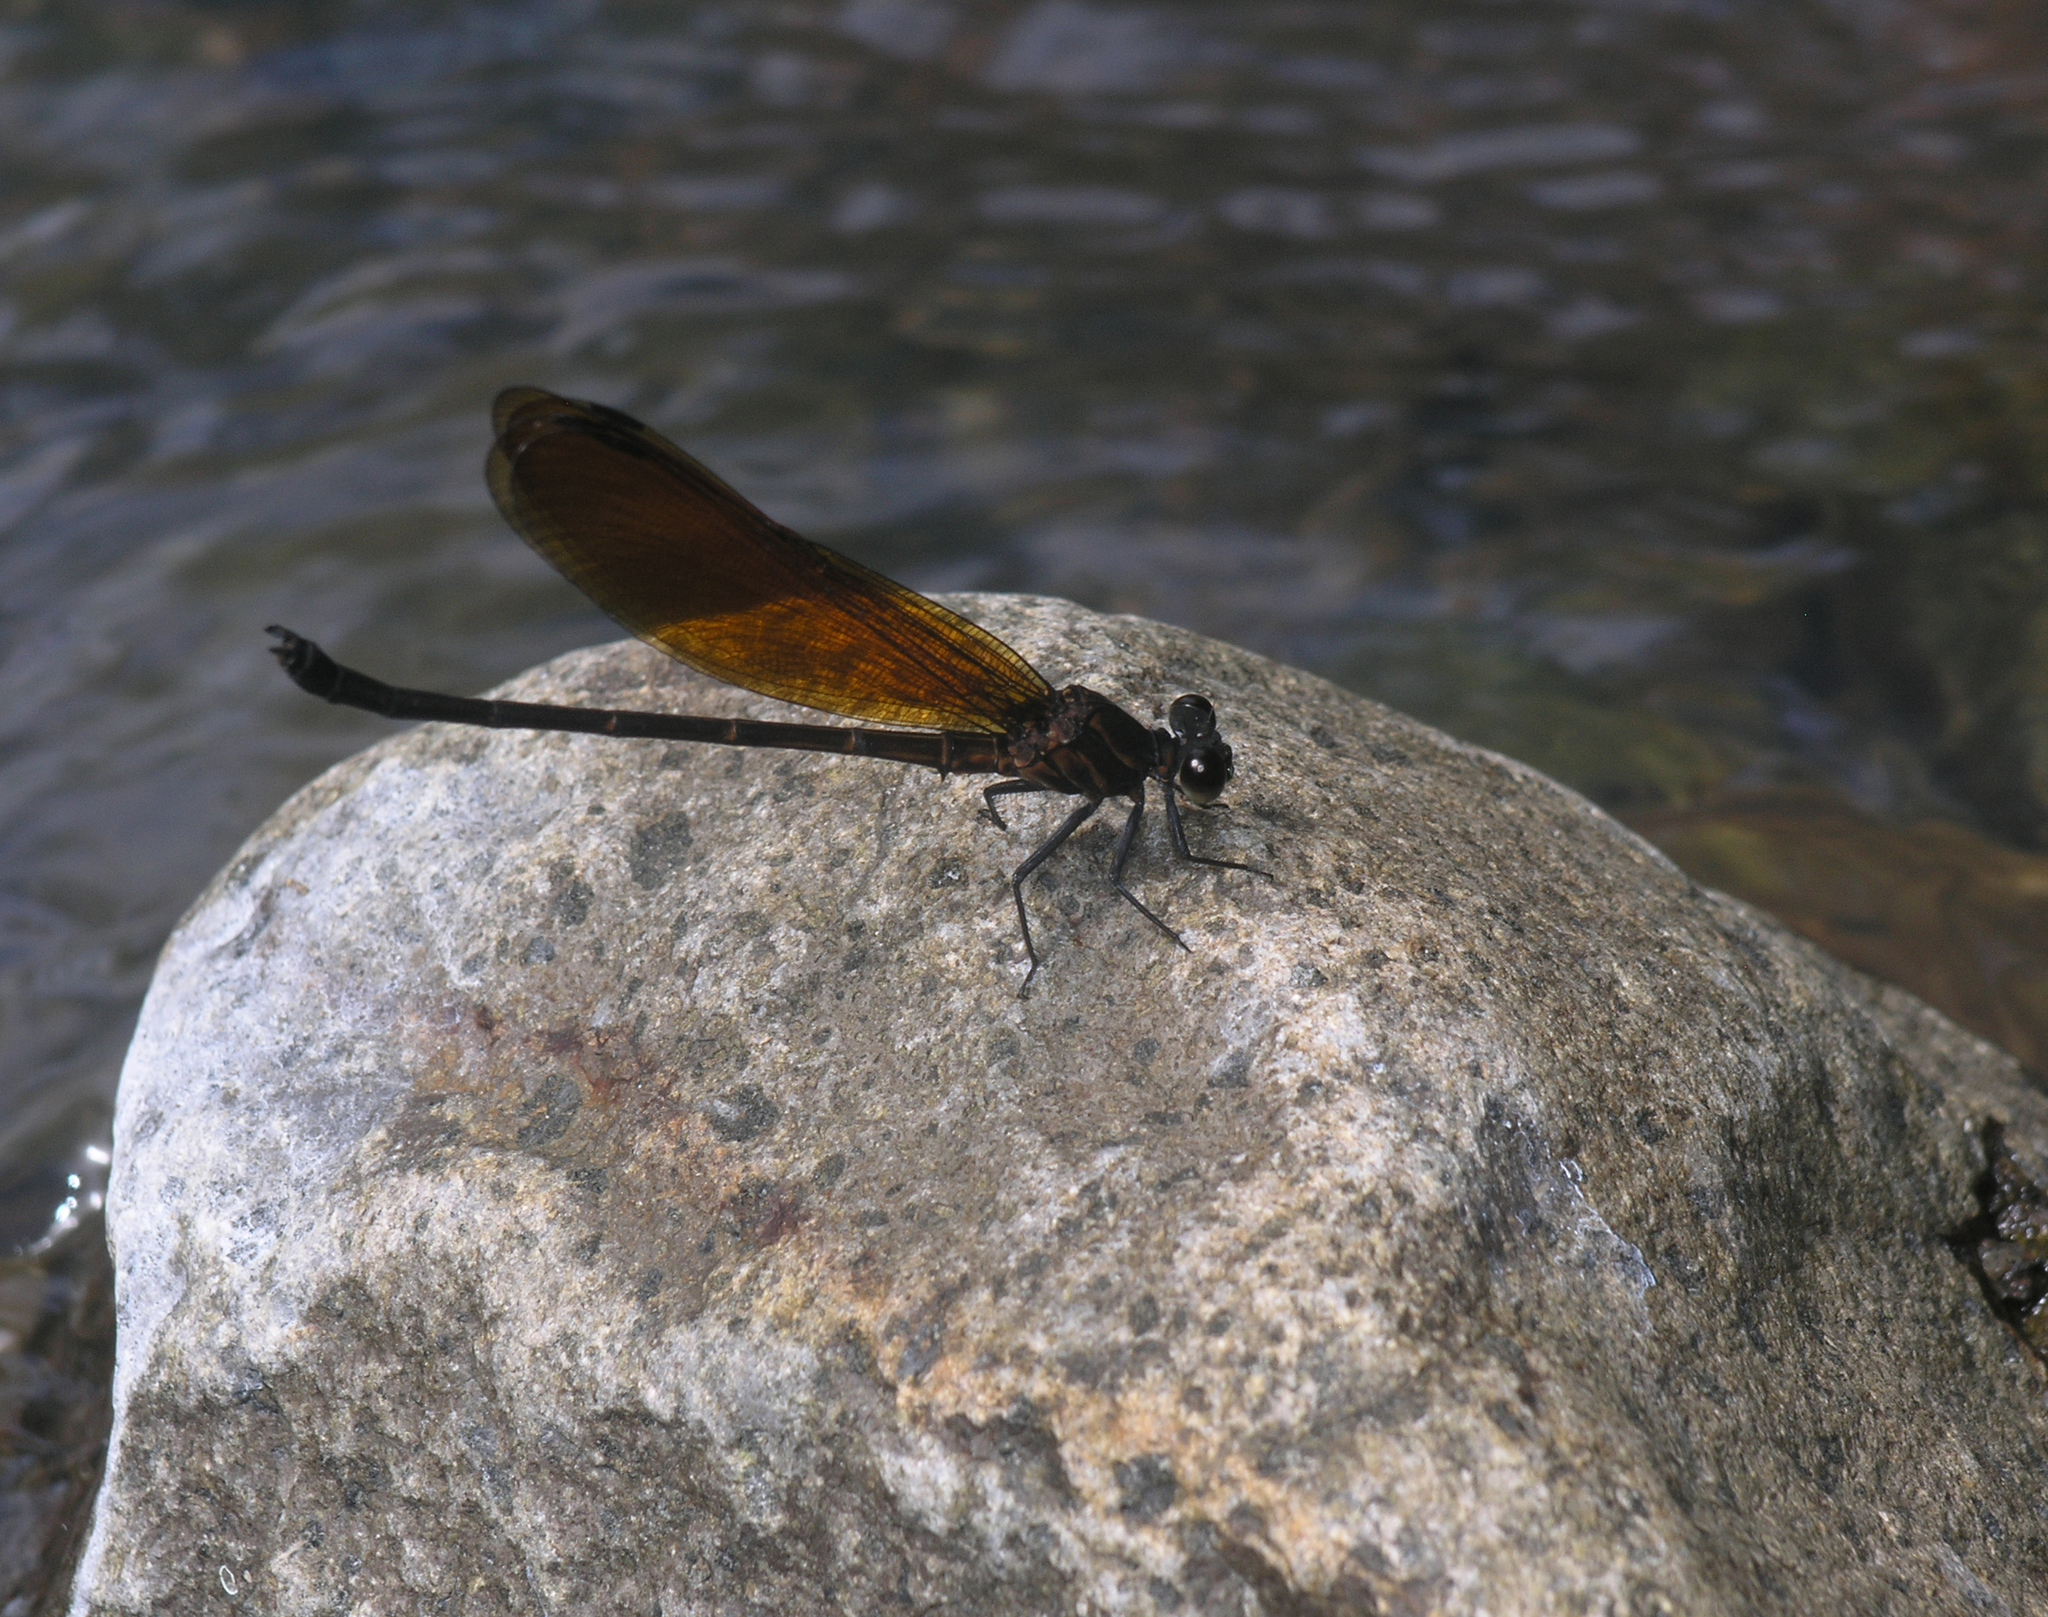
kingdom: Animalia
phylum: Arthropoda
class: Insecta
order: Odonata
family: Euphaeidae
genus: Euphaea
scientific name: Euphaea lara
